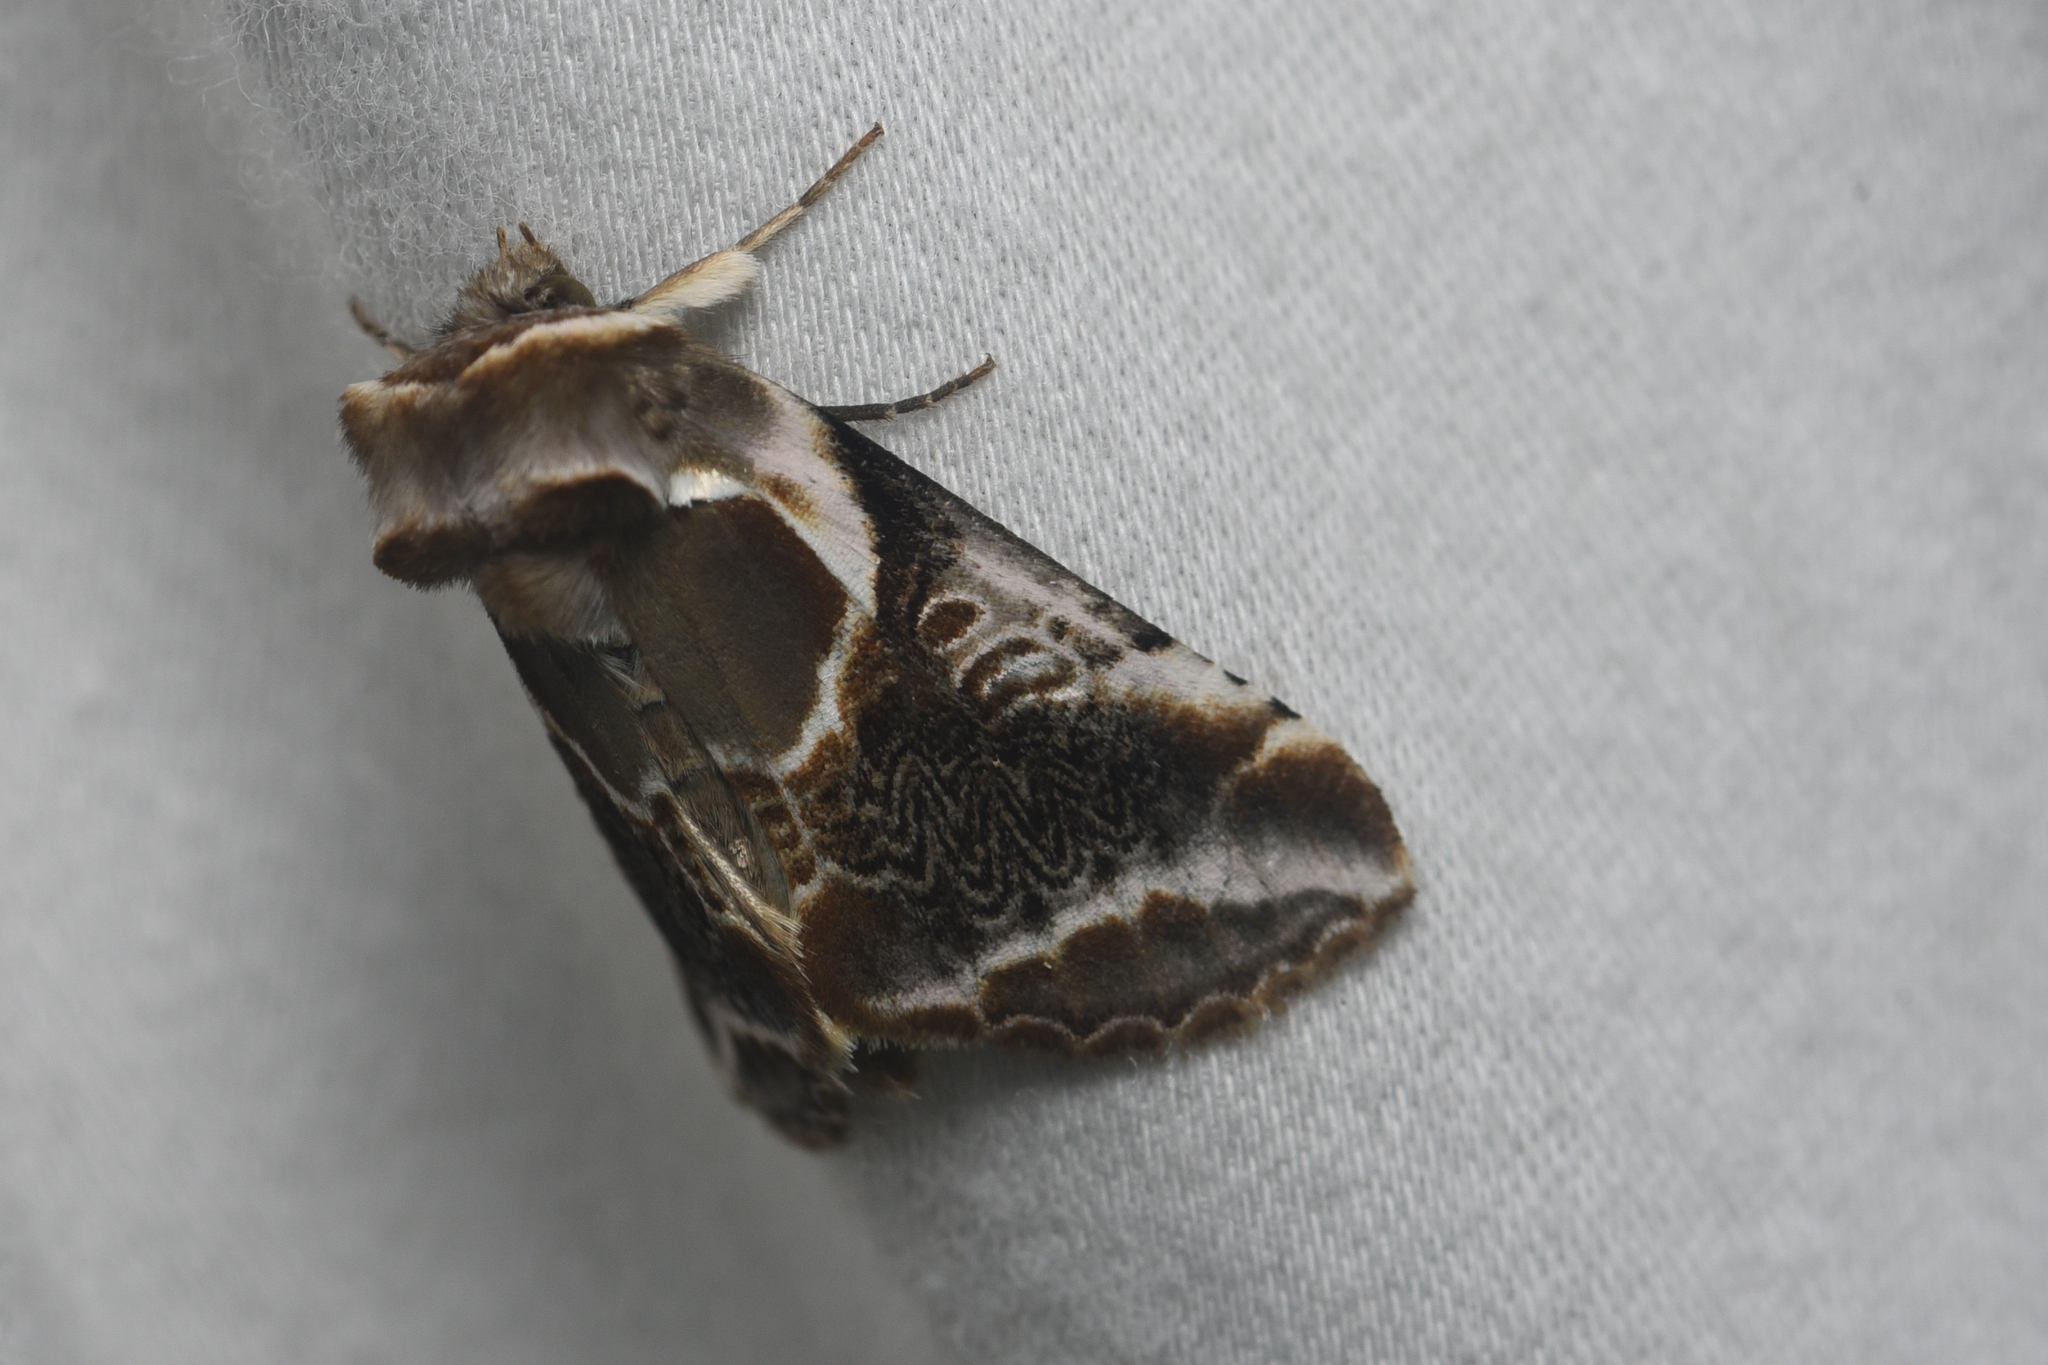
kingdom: Animalia
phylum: Arthropoda
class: Insecta
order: Lepidoptera
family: Drepanidae
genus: Habrosyne
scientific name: Habrosyne scripta
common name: Lettered habrosyne moth
